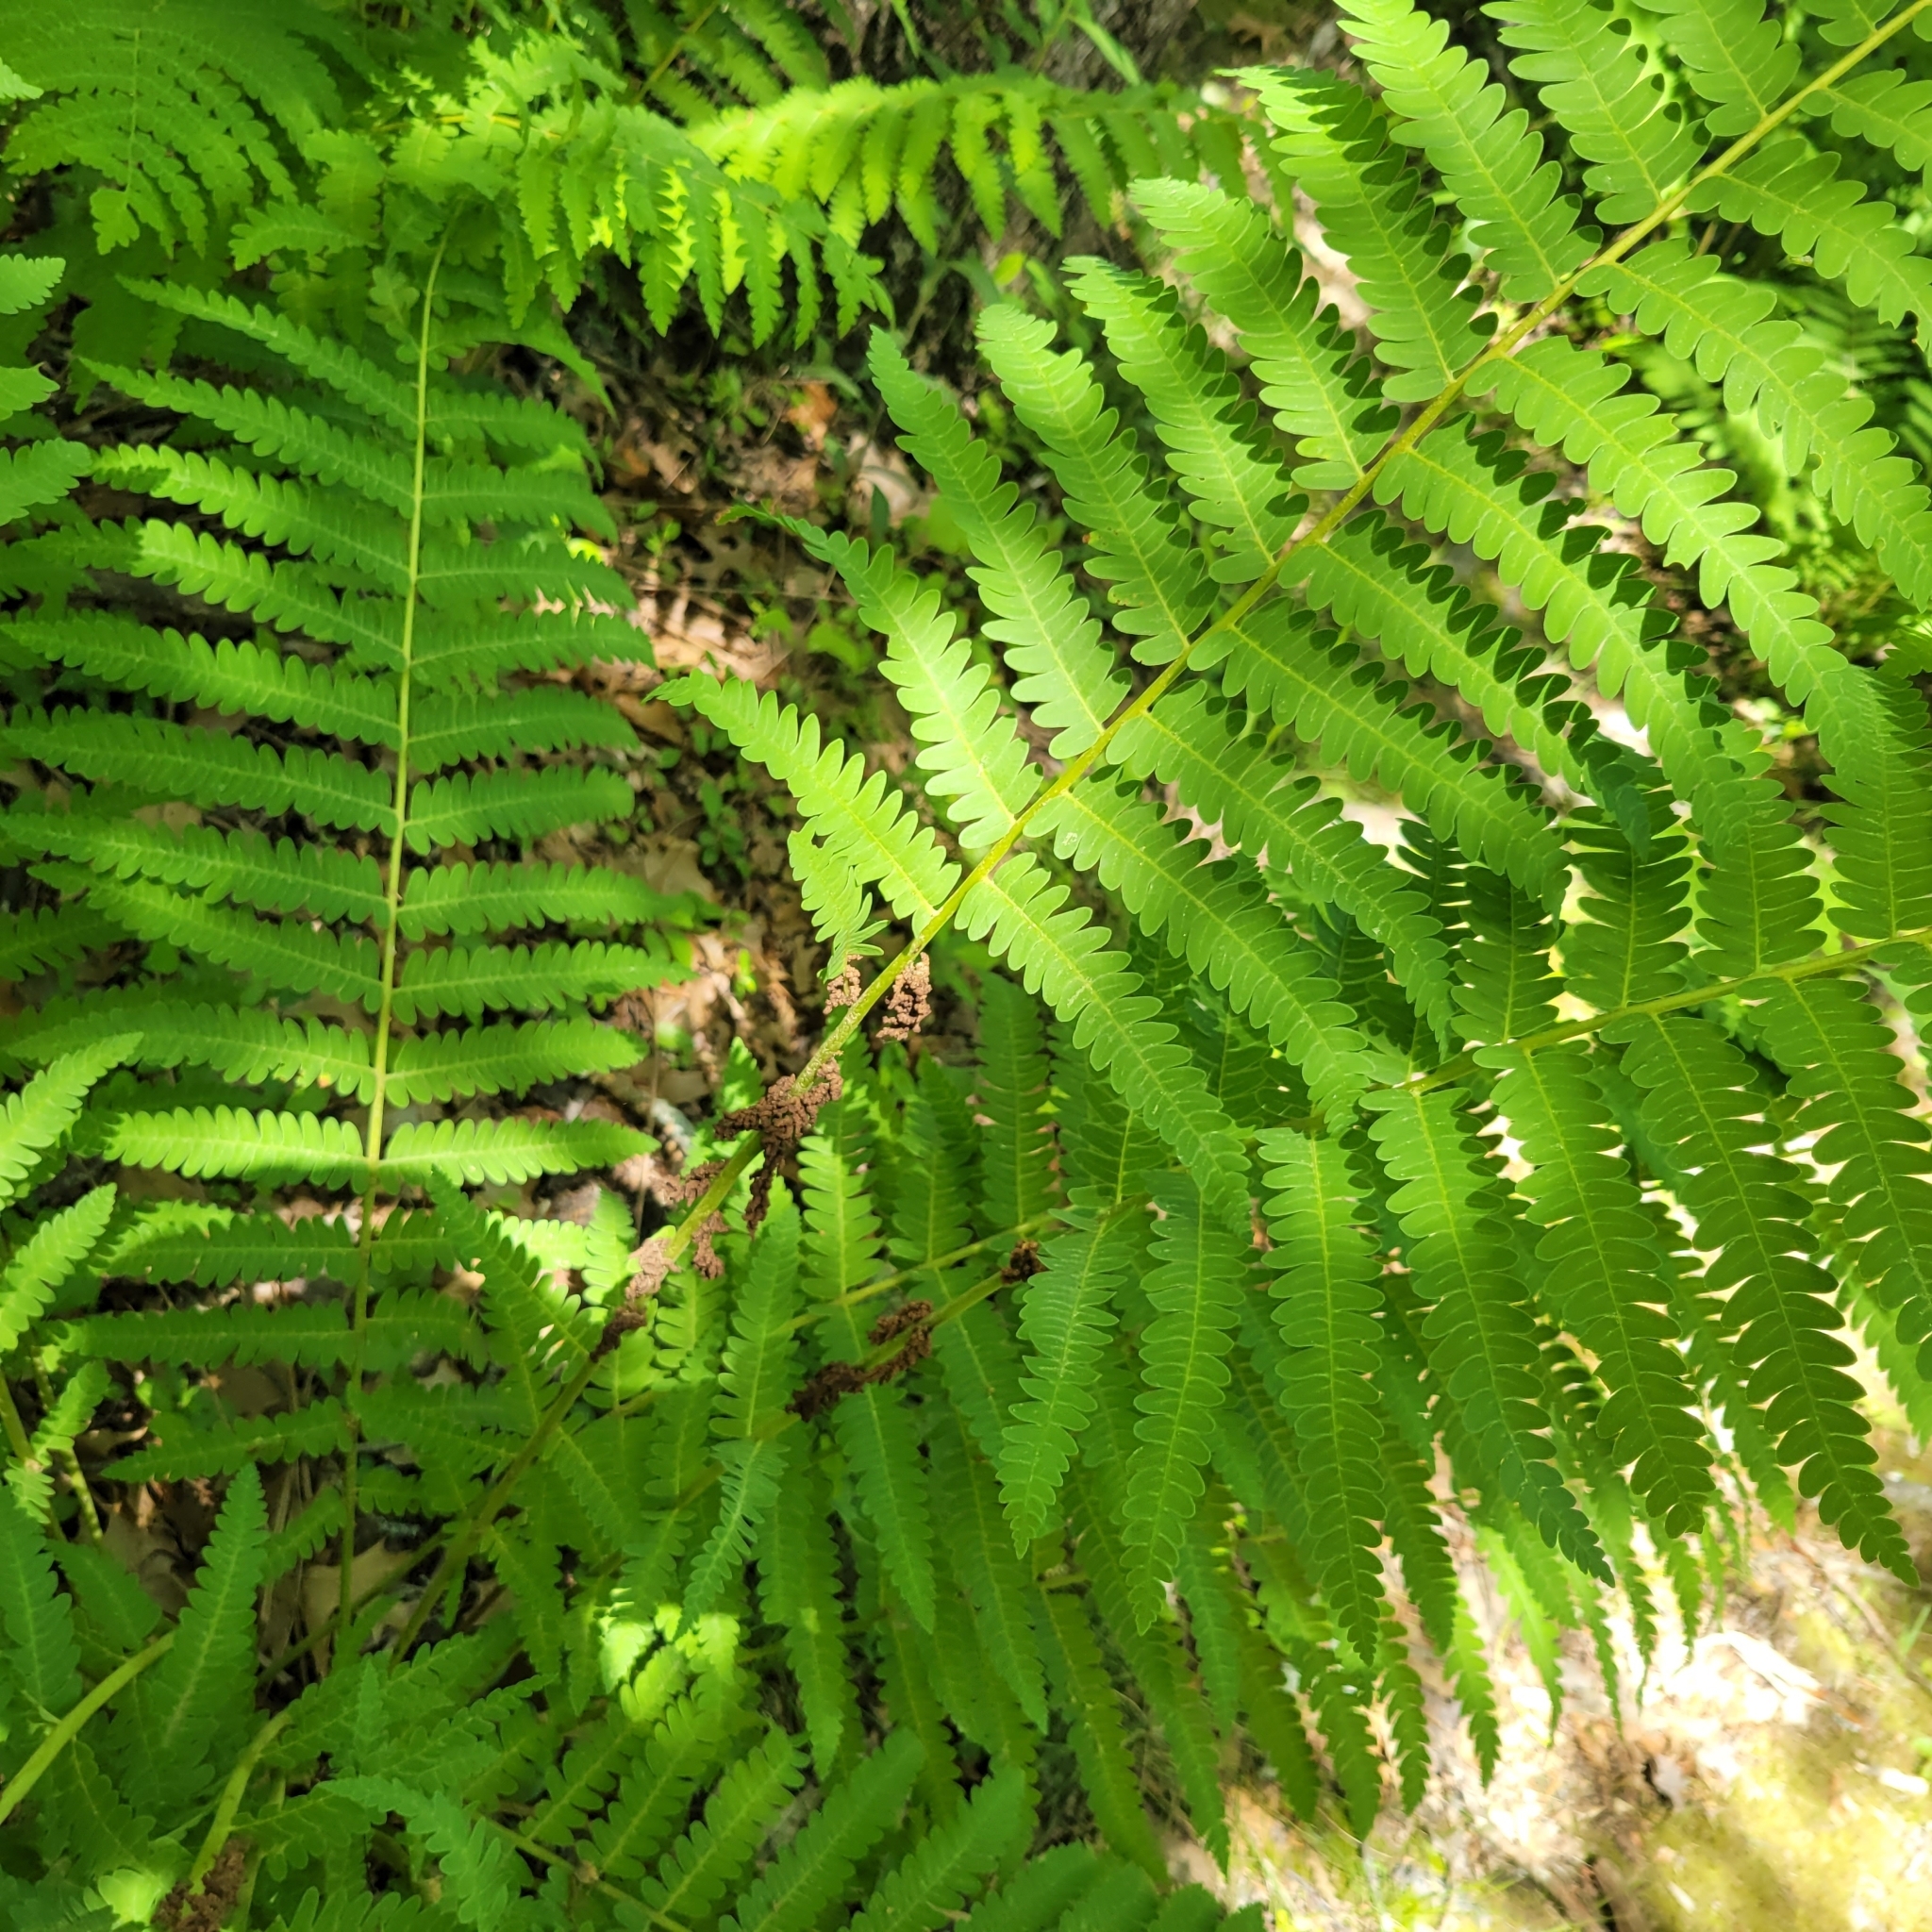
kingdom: Plantae
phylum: Tracheophyta
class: Polypodiopsida
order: Osmundales
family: Osmundaceae
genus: Claytosmunda
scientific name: Claytosmunda claytoniana
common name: Clayton's fern
